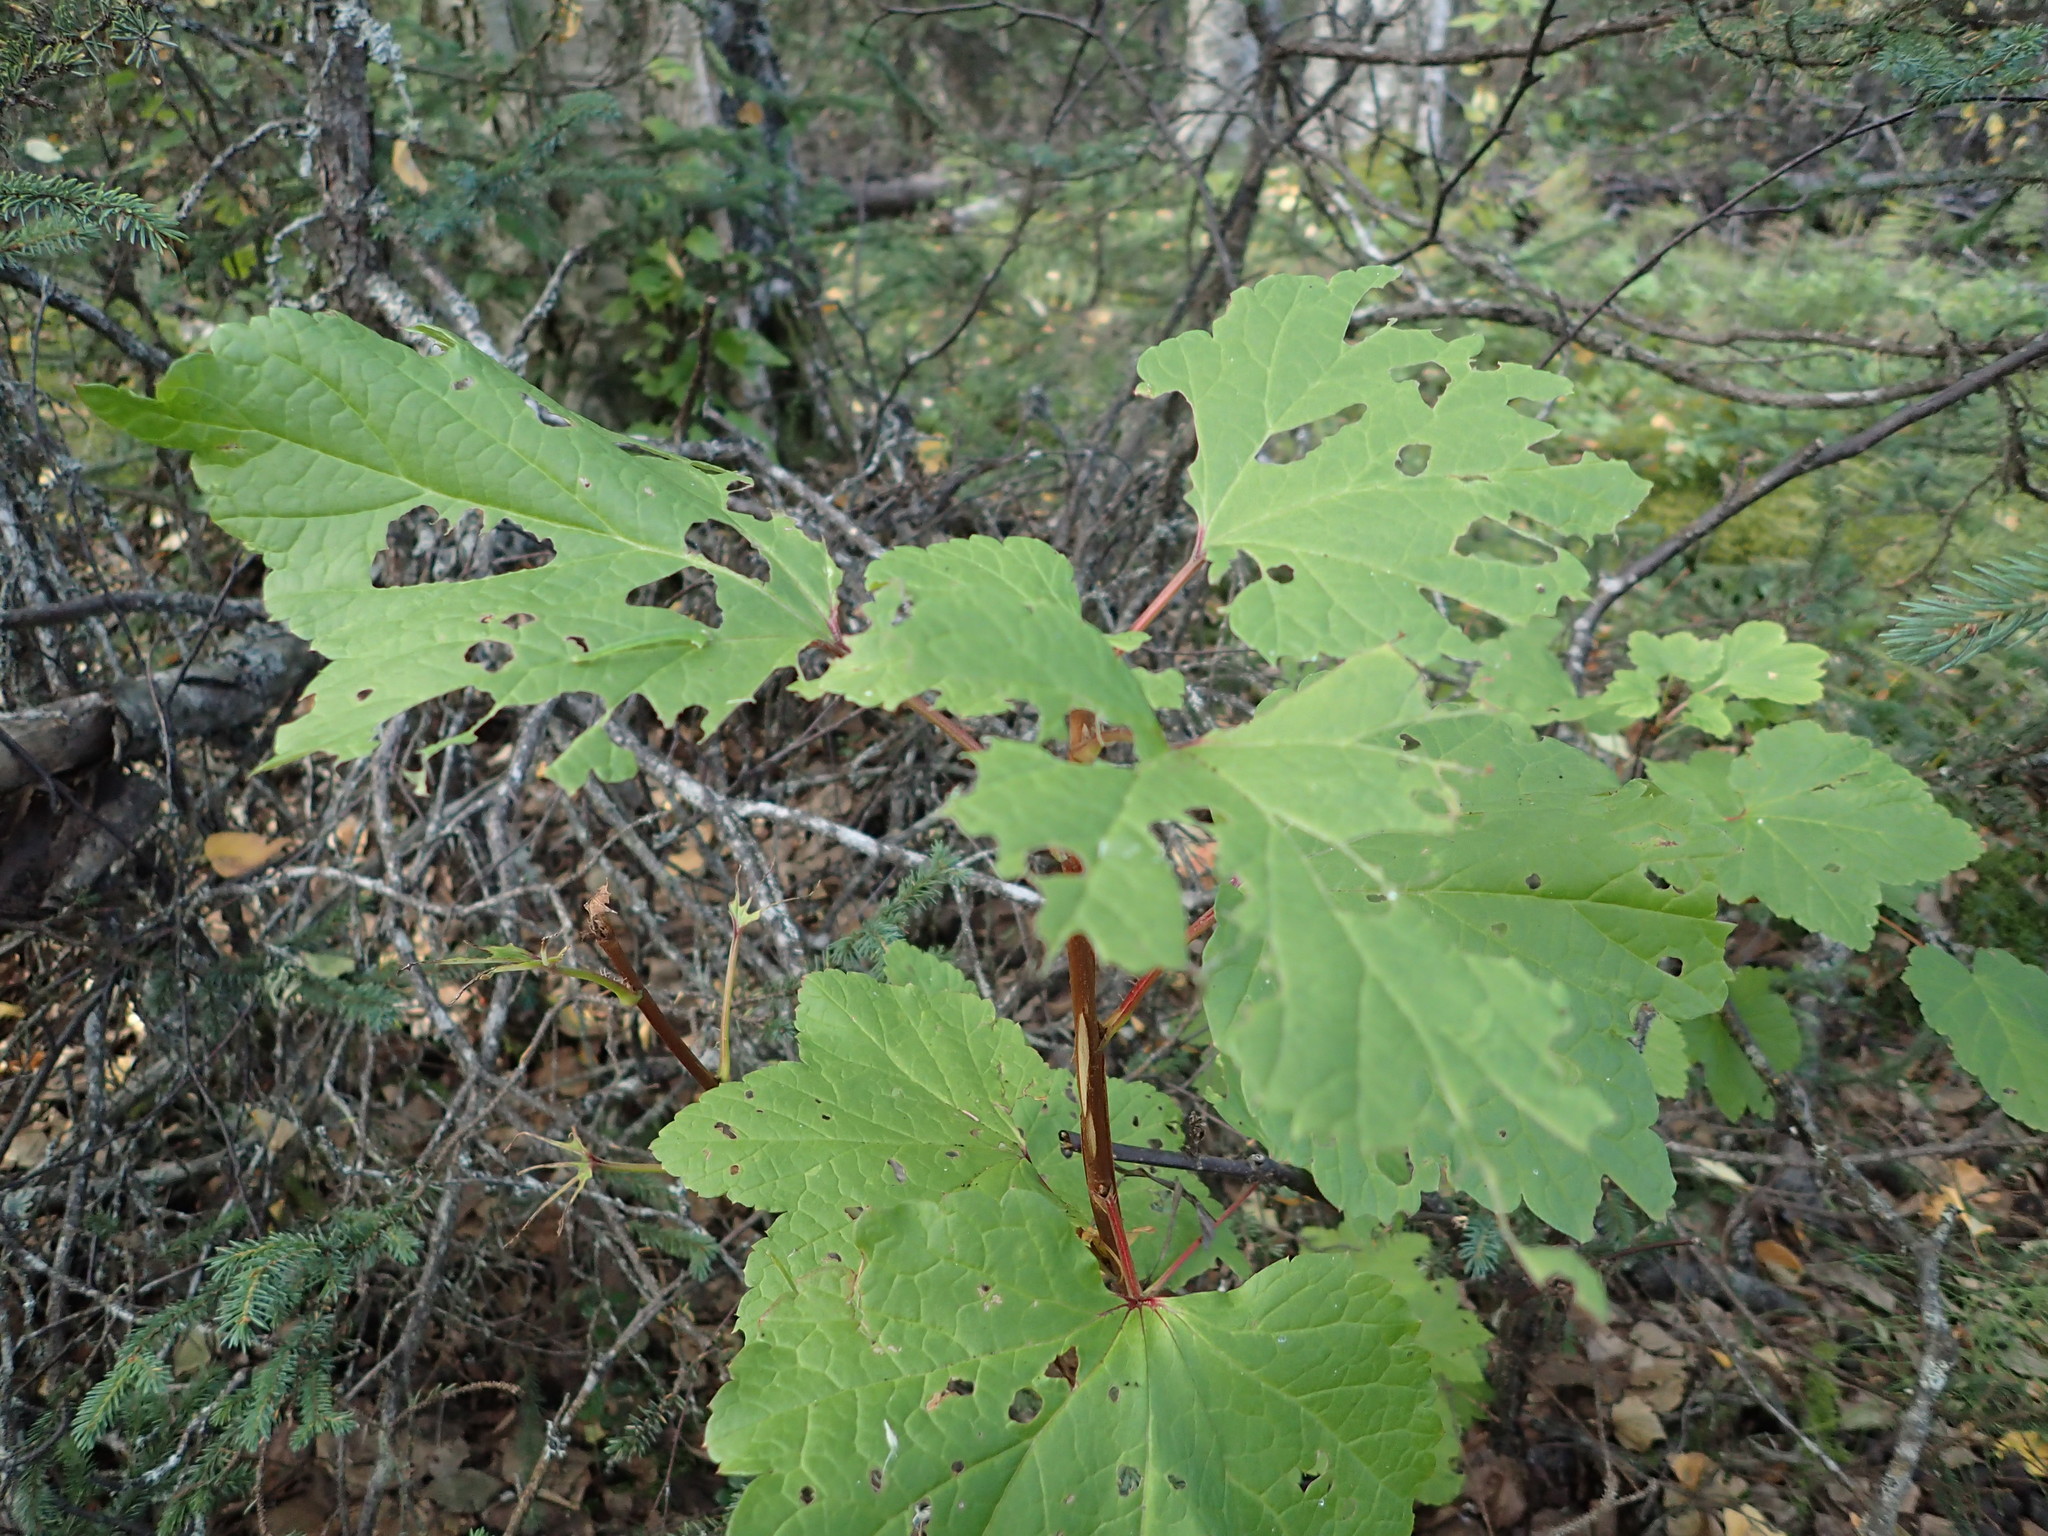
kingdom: Plantae
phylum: Tracheophyta
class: Magnoliopsida
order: Saxifragales
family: Grossulariaceae
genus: Ribes
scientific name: Ribes triste
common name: Swamp red currant
